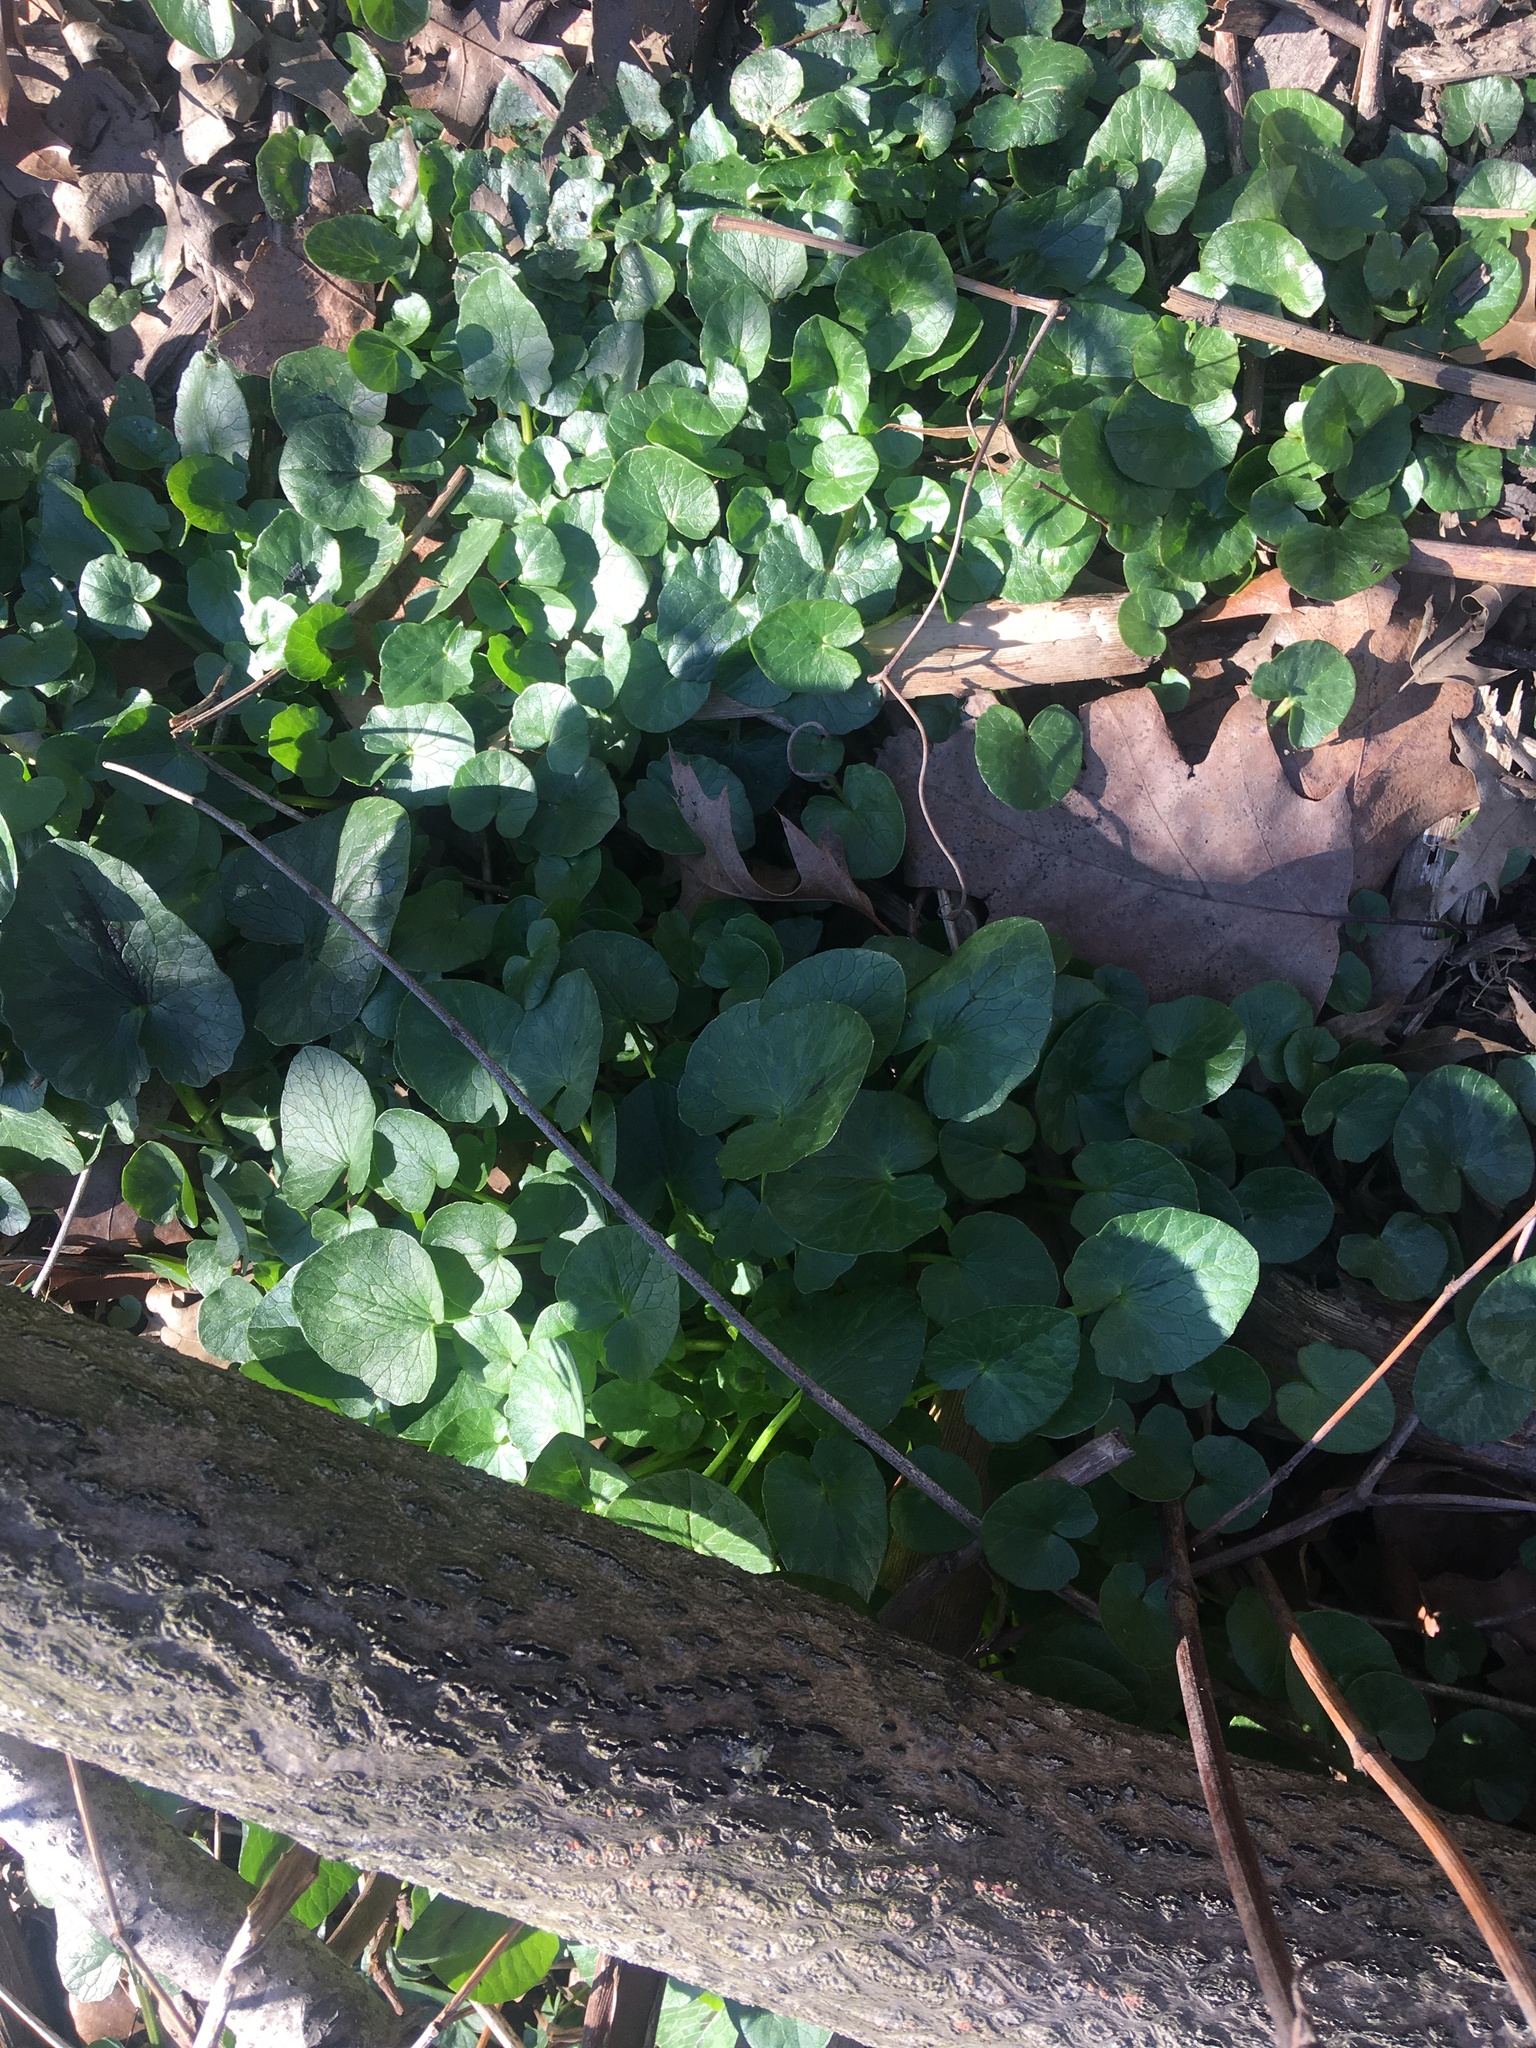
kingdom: Plantae
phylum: Tracheophyta
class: Magnoliopsida
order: Ranunculales
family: Ranunculaceae
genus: Ficaria
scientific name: Ficaria verna
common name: Lesser celandine
